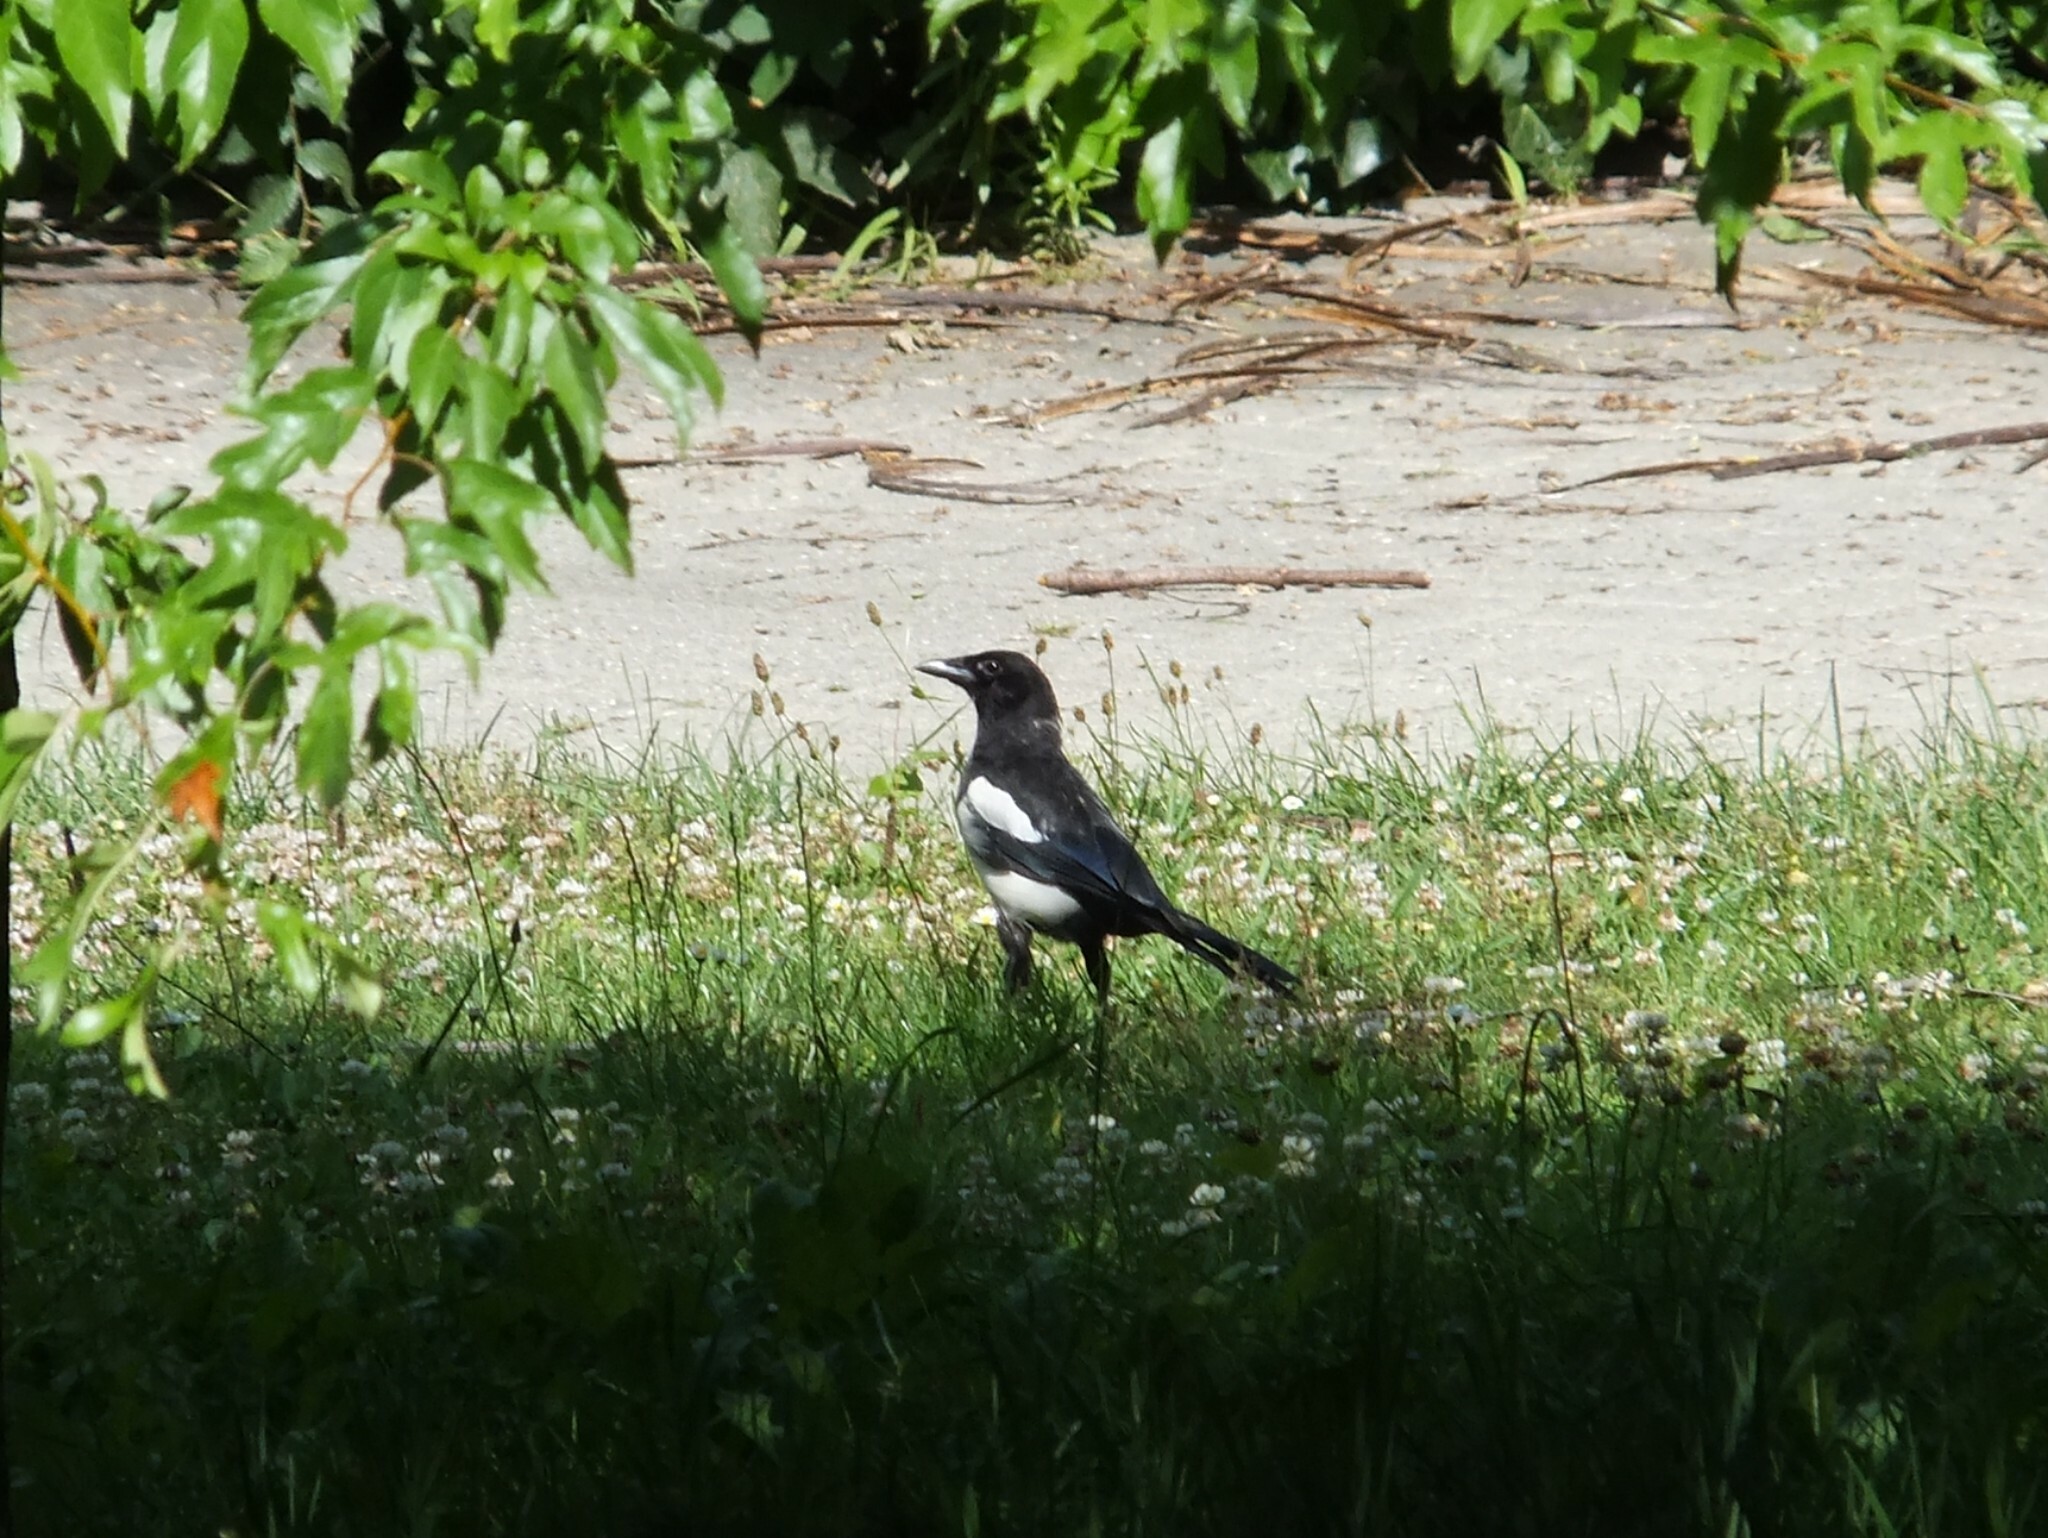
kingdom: Animalia
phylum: Chordata
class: Aves
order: Passeriformes
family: Corvidae
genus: Pica
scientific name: Pica pica
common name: Eurasian magpie
